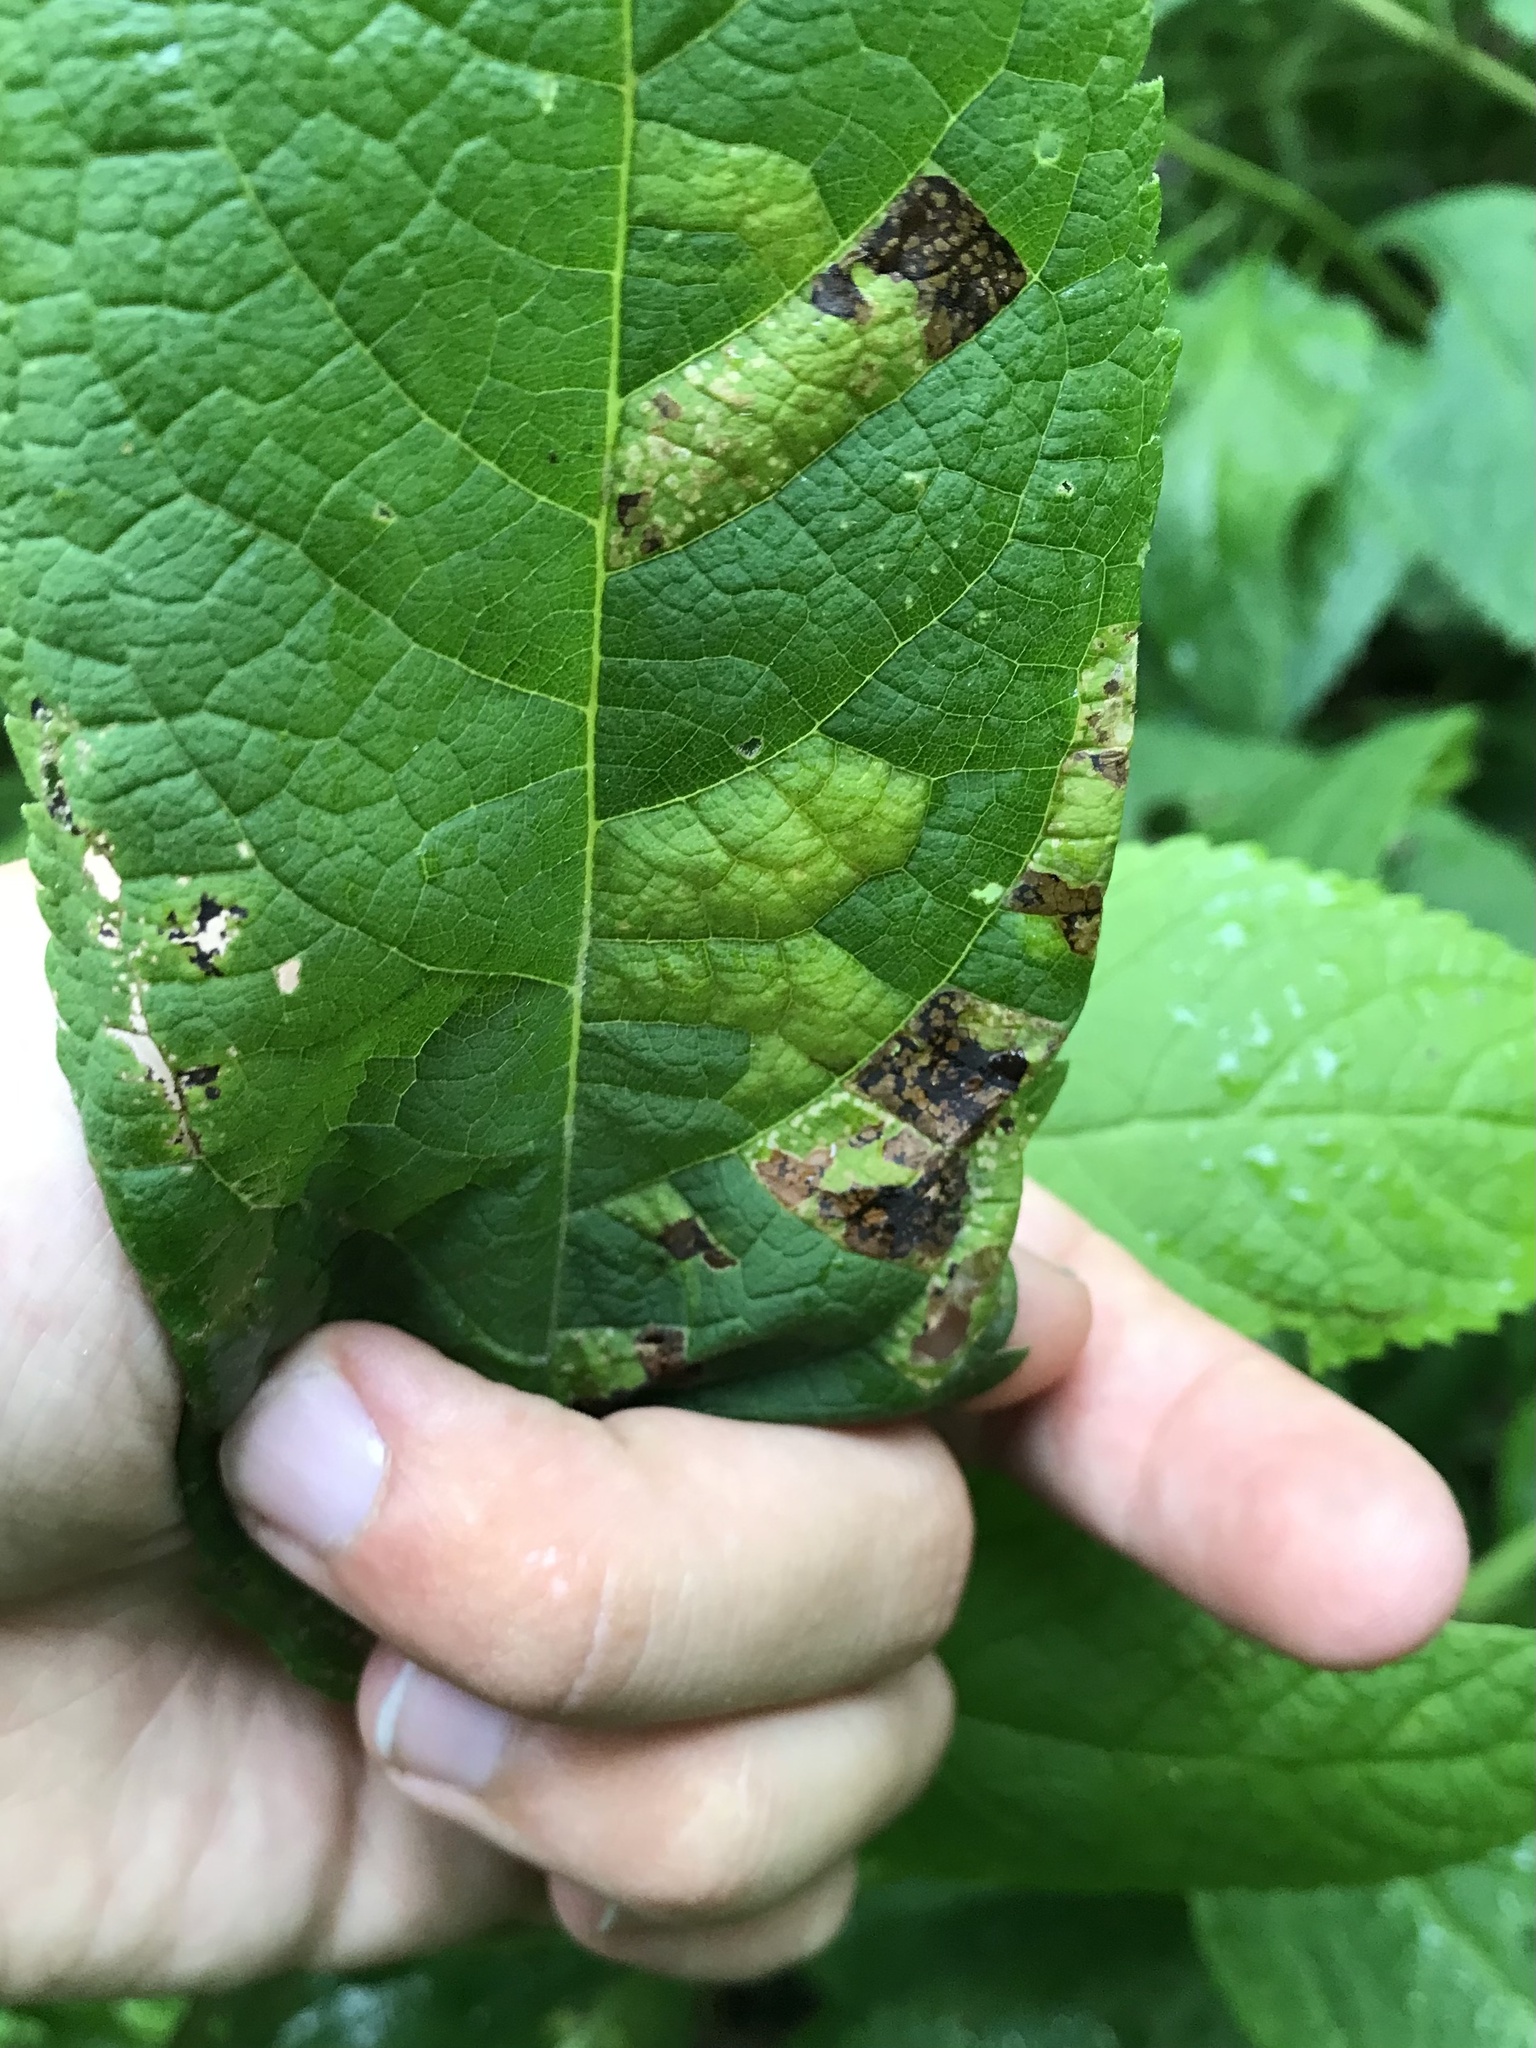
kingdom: Animalia
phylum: Arthropoda
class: Insecta
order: Lepidoptera
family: Gracillariidae
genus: Leucospilapteryx
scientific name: Leucospilapteryx venustella
